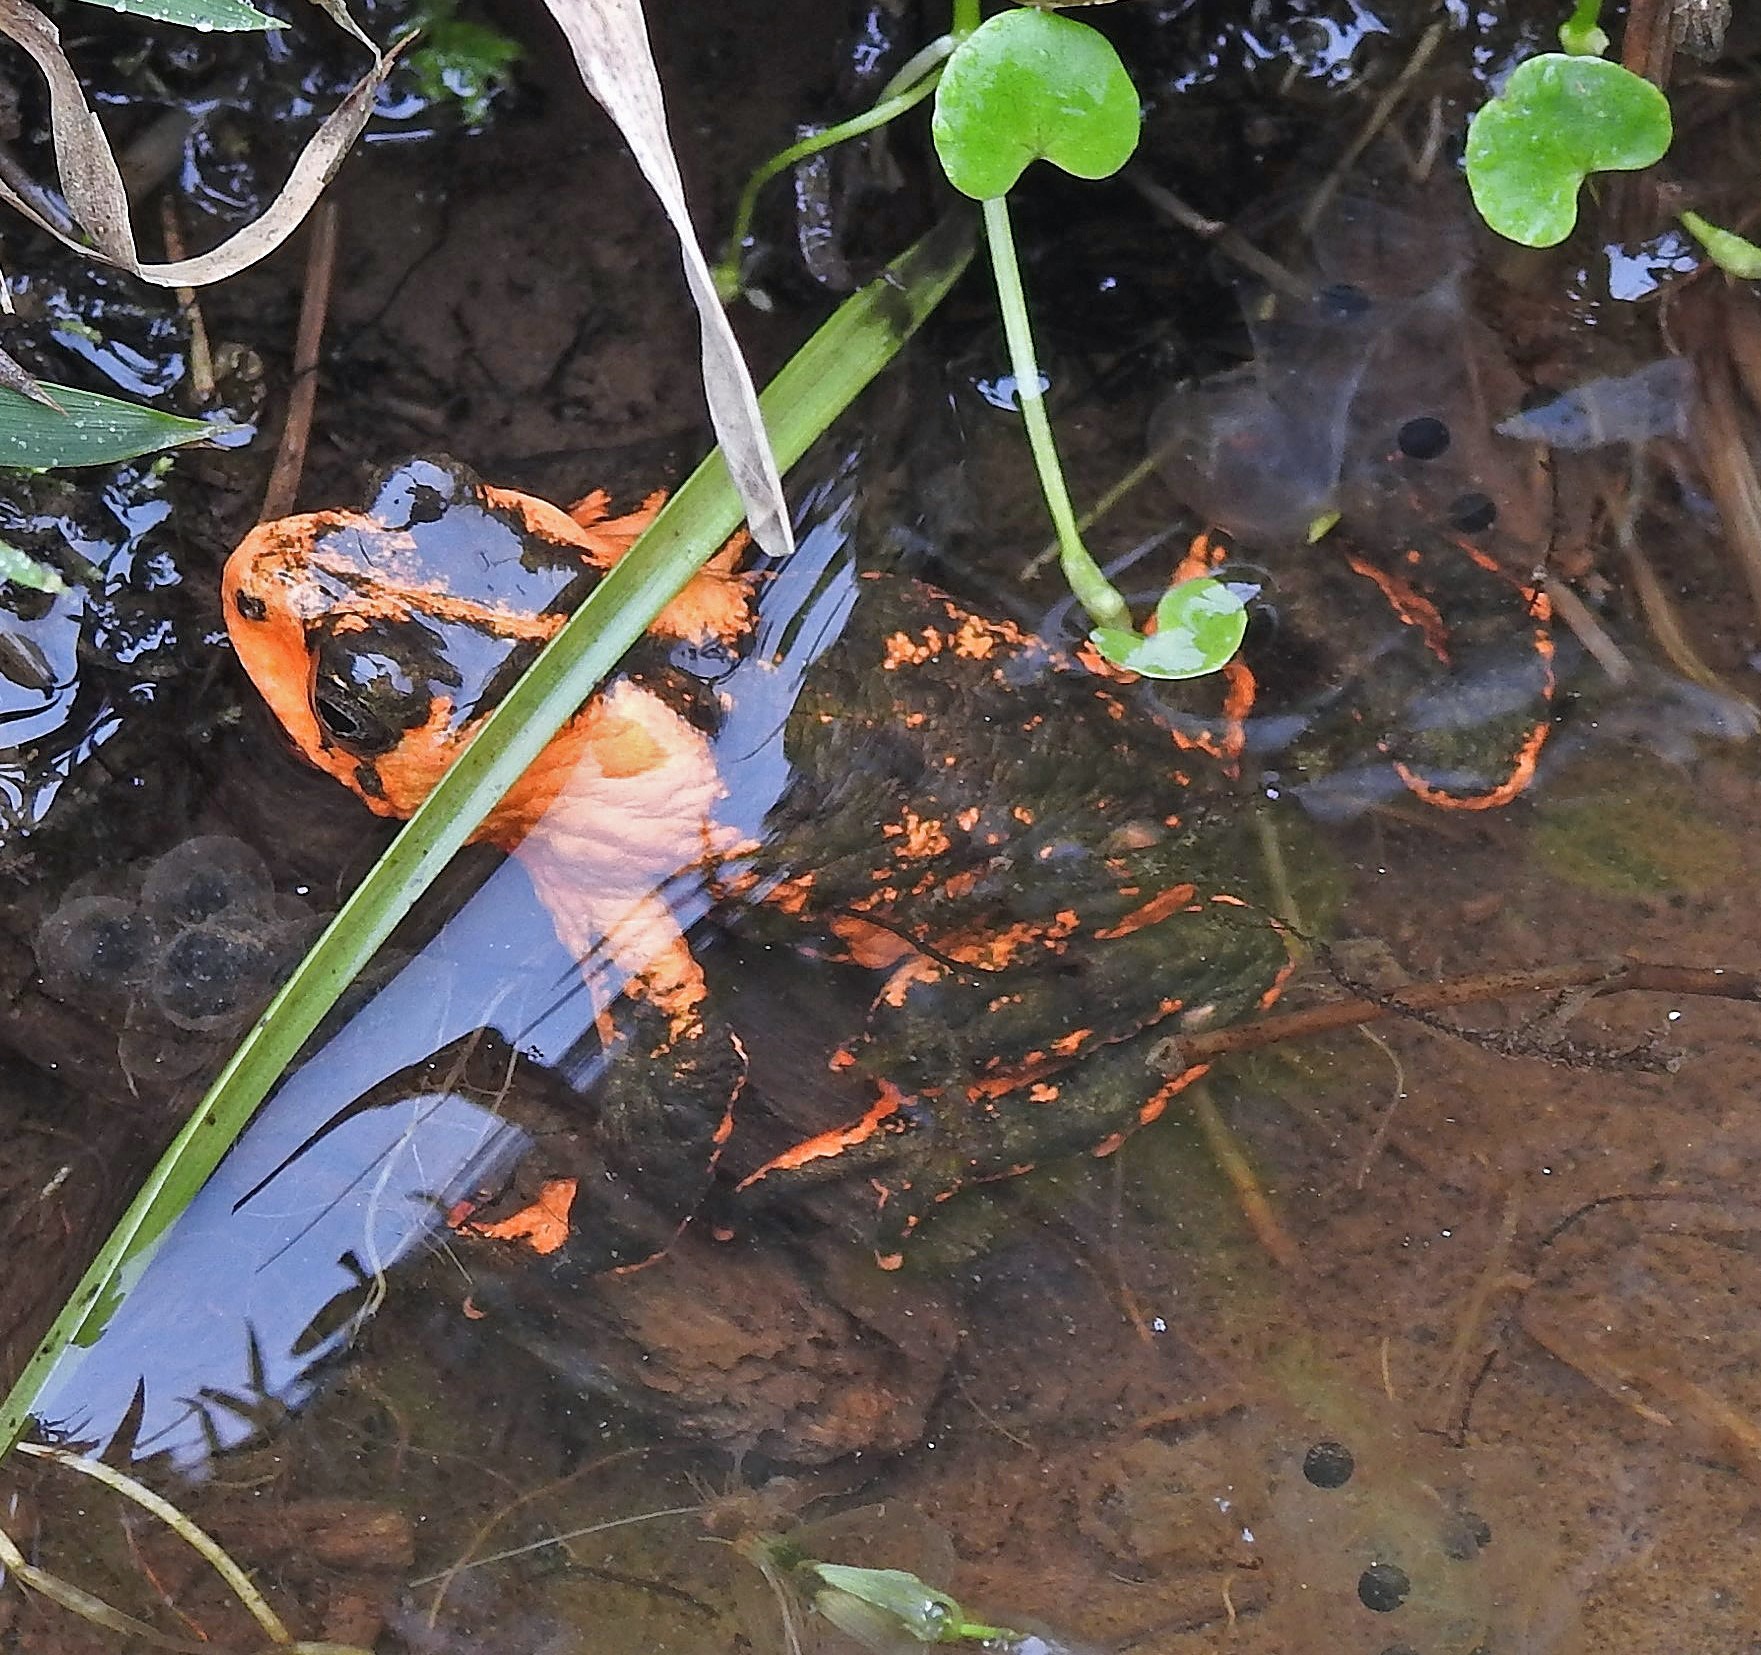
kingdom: Animalia
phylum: Chordata
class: Amphibia
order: Anura
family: Bufonidae
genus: Melanophryniscus
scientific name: Melanophryniscus rubriventris
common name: Red bellied toad
